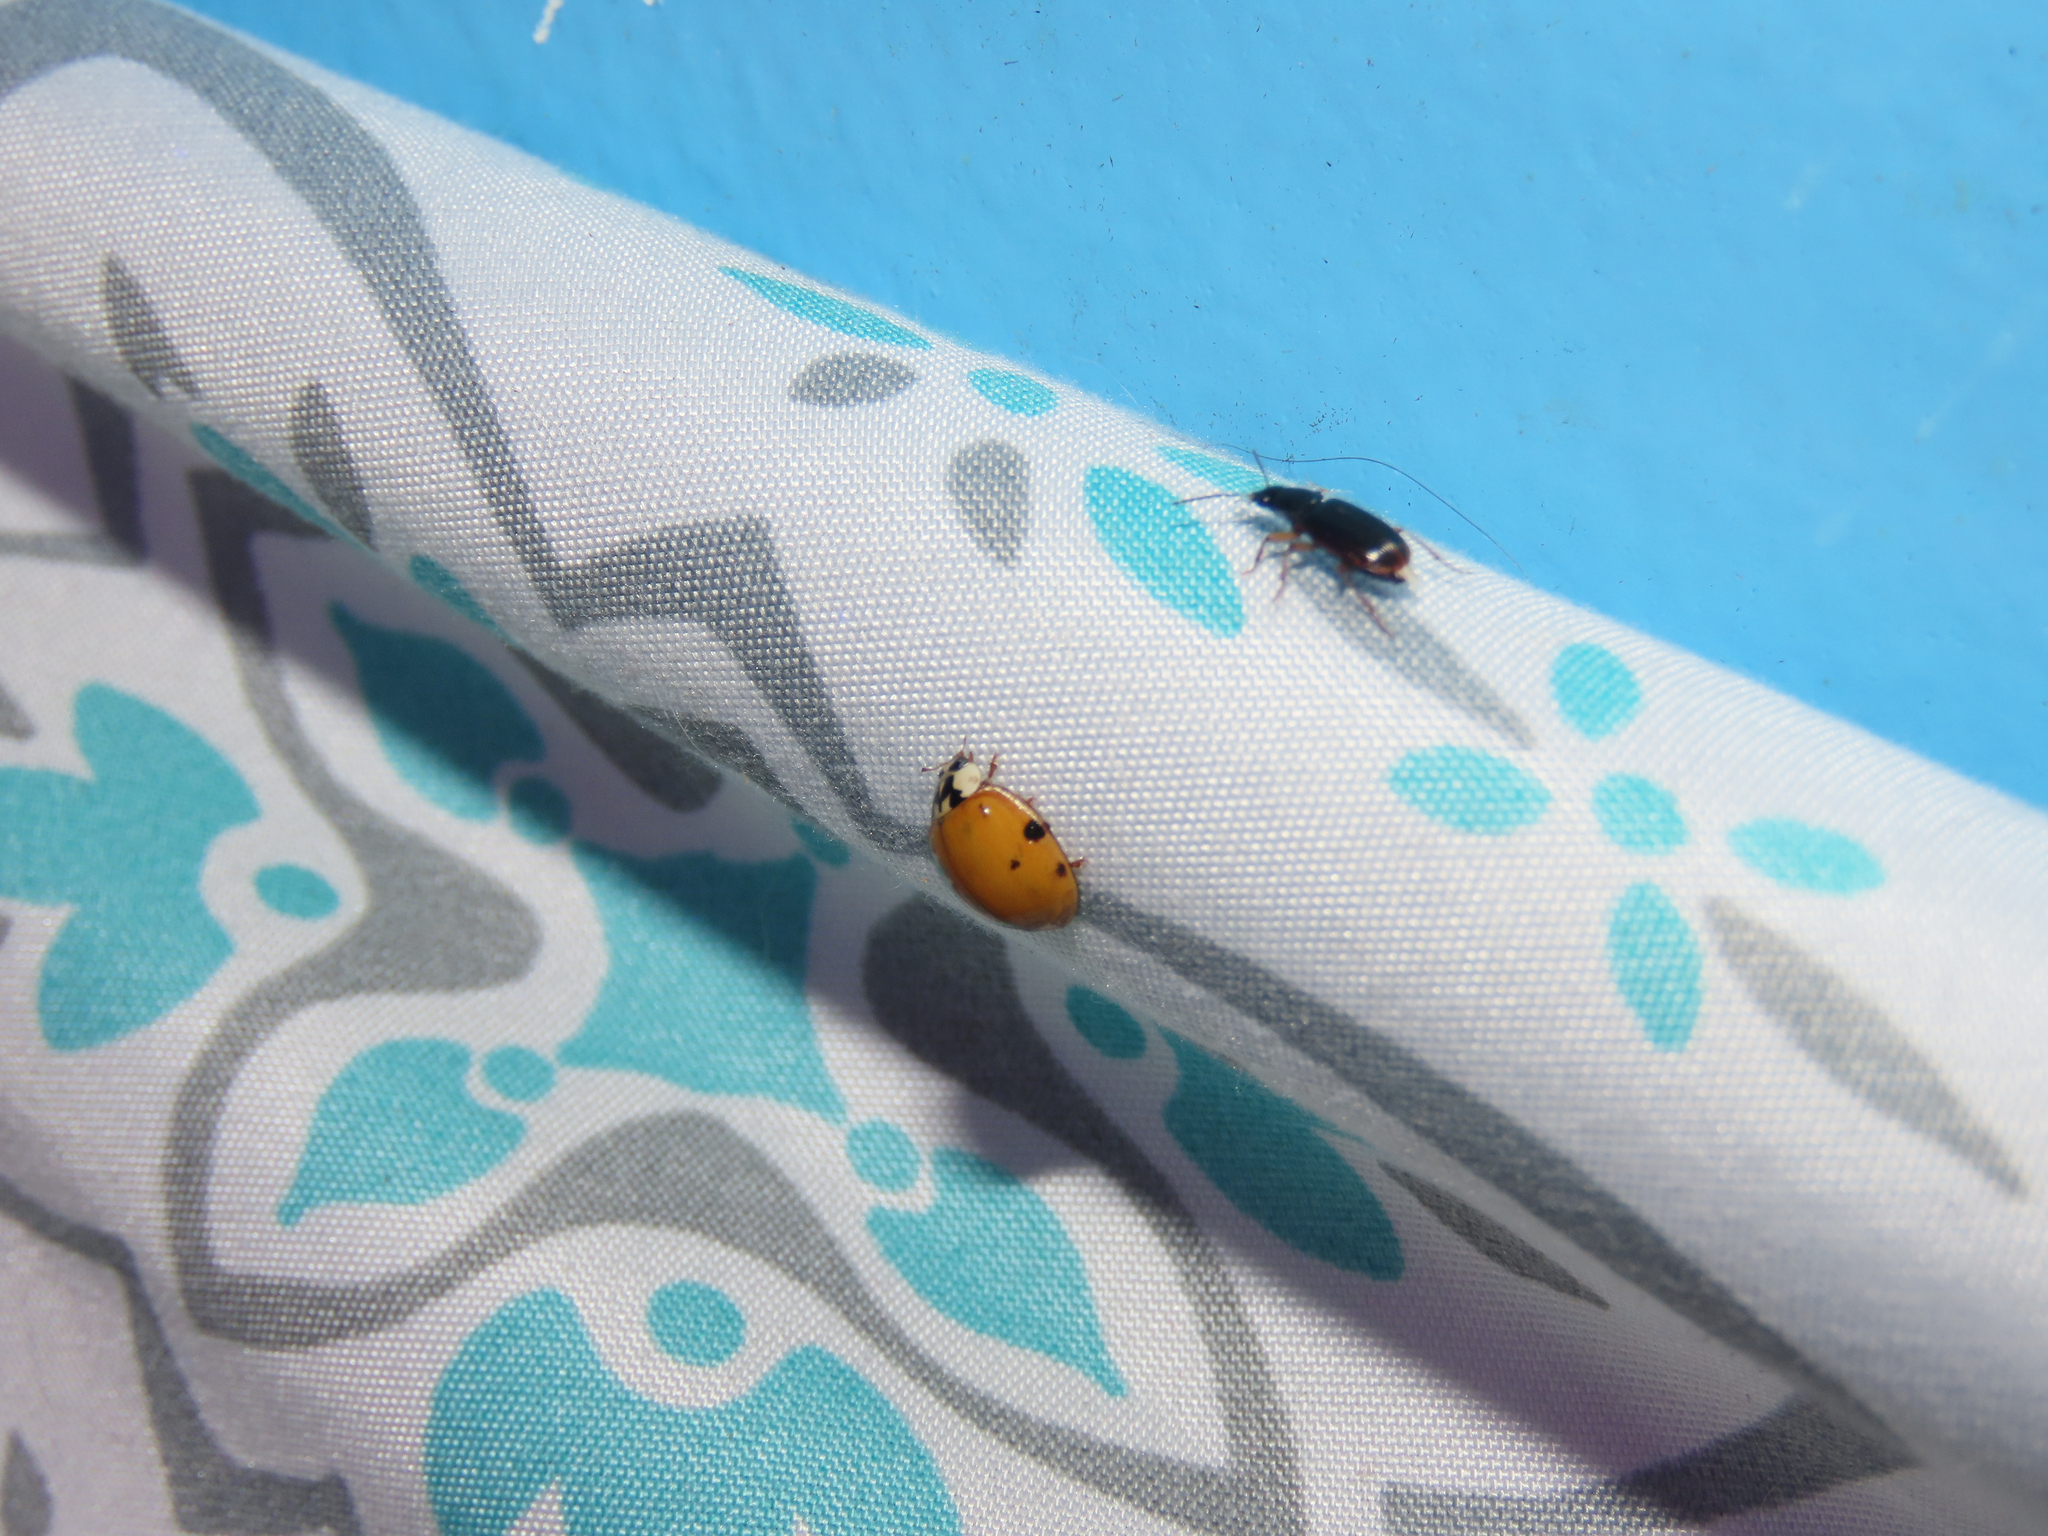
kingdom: Animalia
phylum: Arthropoda
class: Insecta
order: Coleoptera
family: Coccinellidae
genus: Harmonia
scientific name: Harmonia axyridis
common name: Harlequin ladybird
